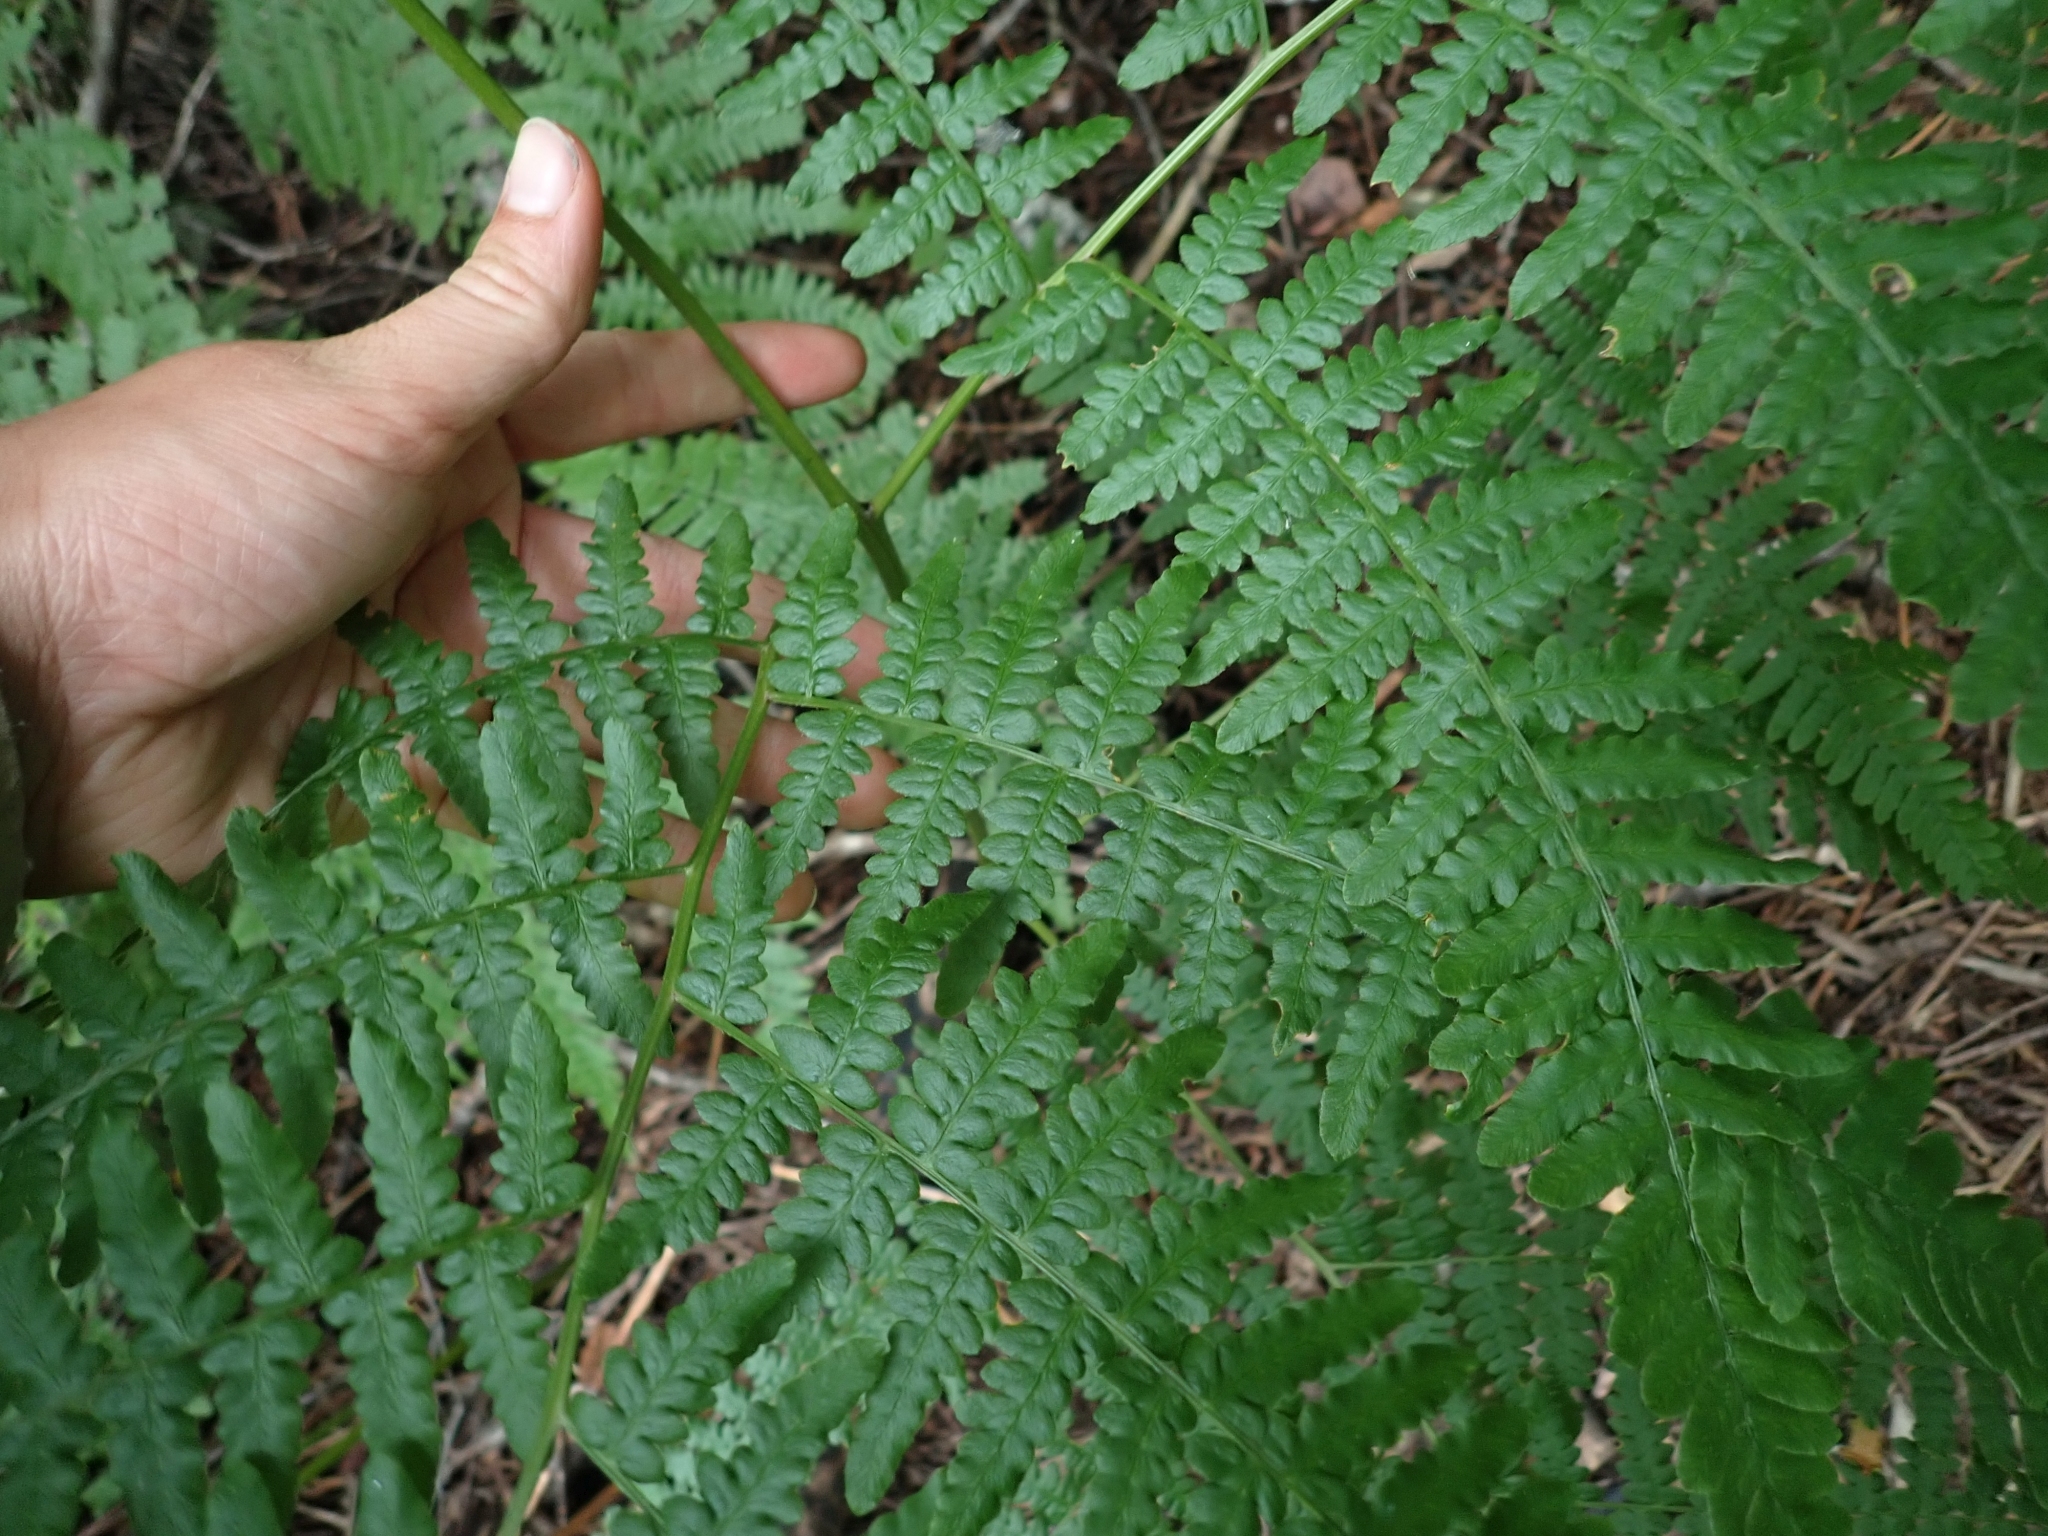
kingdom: Plantae
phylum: Tracheophyta
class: Polypodiopsida
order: Polypodiales
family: Dennstaedtiaceae
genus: Pteridium
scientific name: Pteridium aquilinum
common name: Bracken
